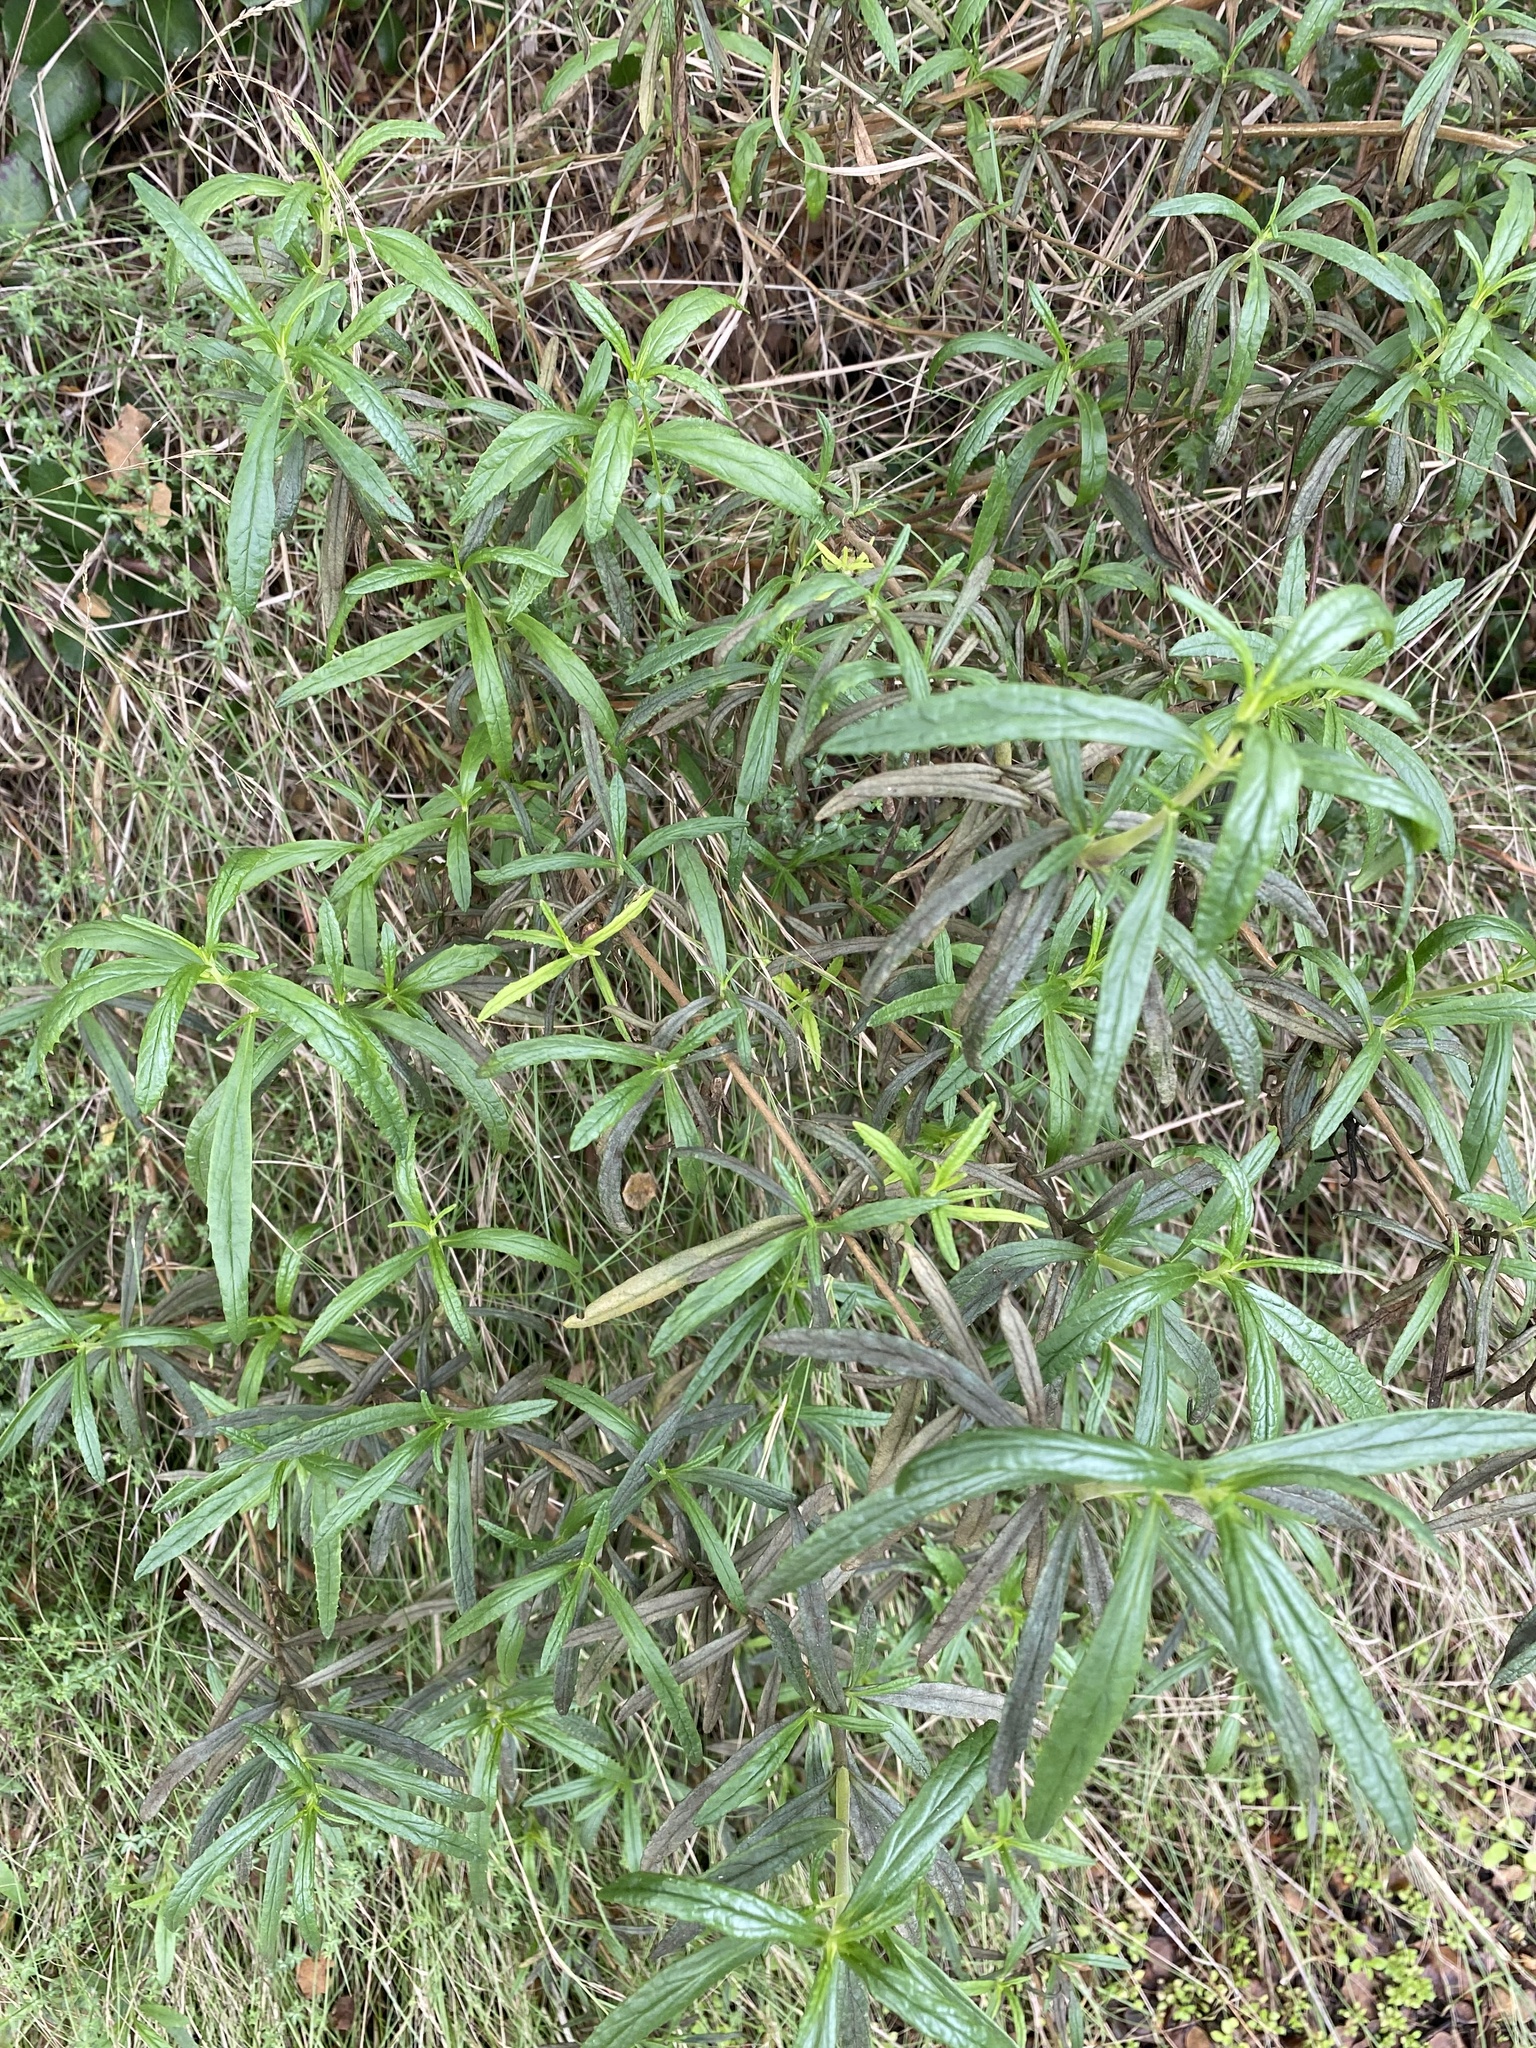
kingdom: Plantae
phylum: Tracheophyta
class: Magnoliopsida
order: Lamiales
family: Phrymaceae
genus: Diplacus
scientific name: Diplacus puniceus
